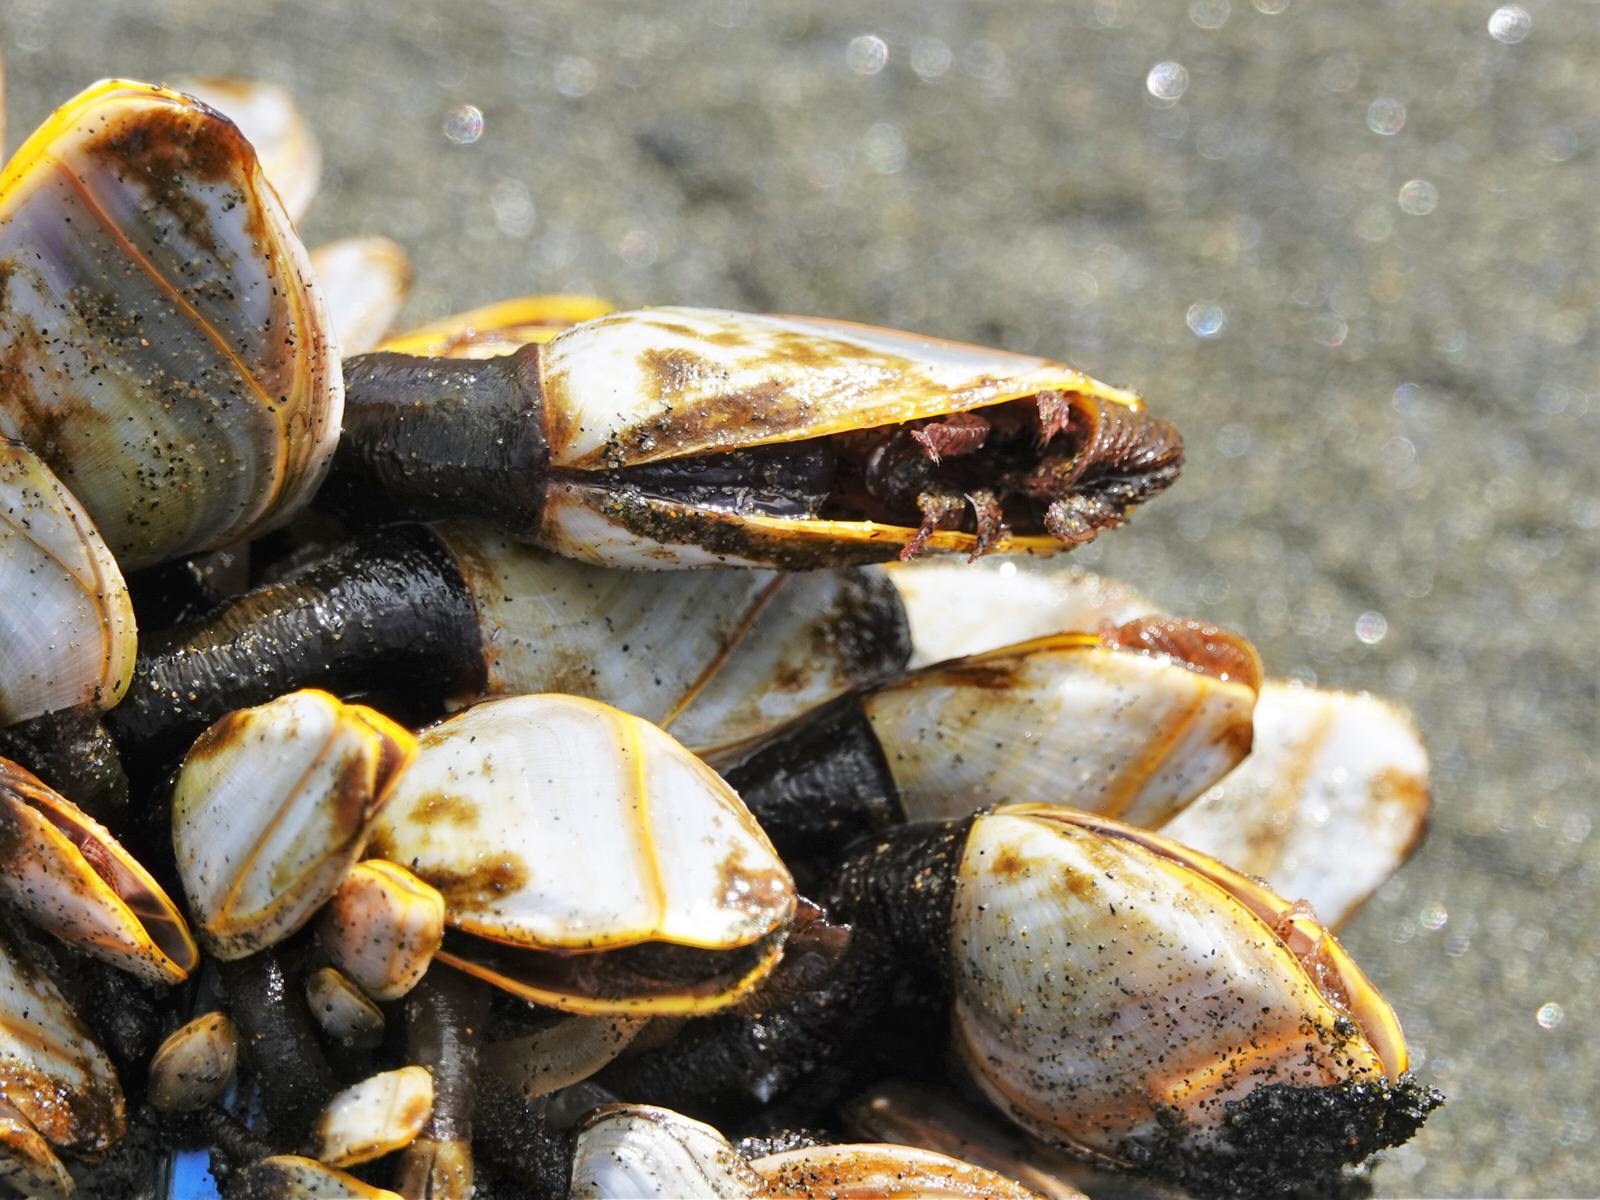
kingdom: Animalia
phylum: Arthropoda
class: Maxillopoda
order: Pedunculata
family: Lepadidae
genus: Lepas
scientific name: Lepas anatifera
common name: Common goose barnacle
